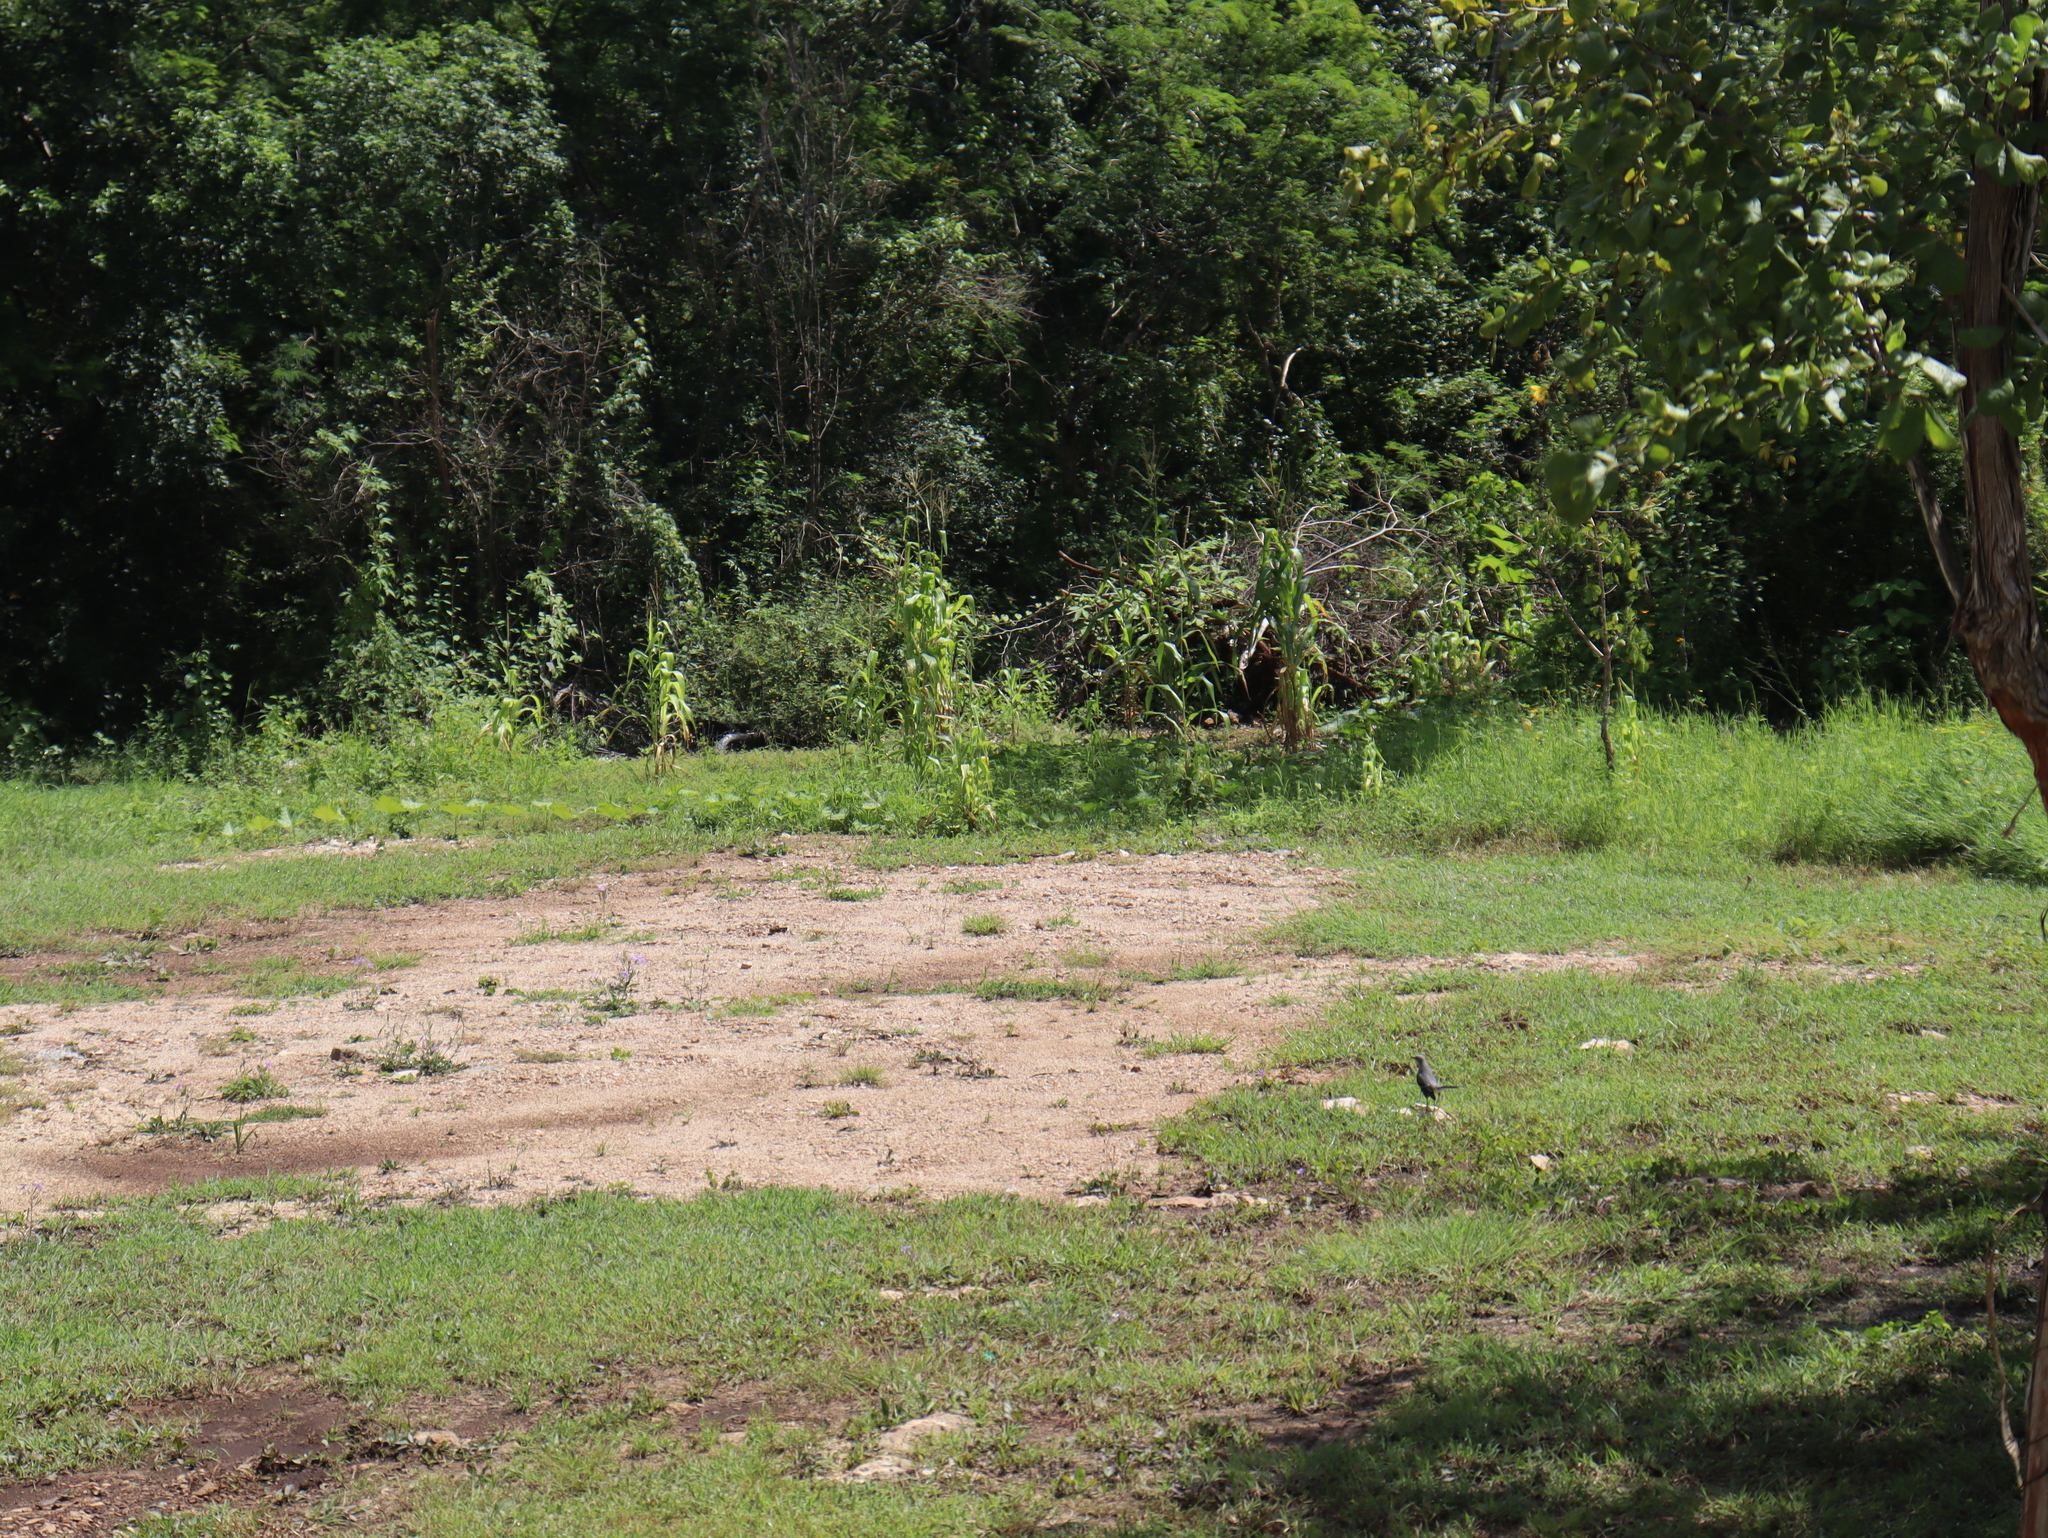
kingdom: Animalia
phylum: Chordata
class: Aves
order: Passeriformes
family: Mimidae
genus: Mimus
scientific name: Mimus gilvus
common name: Tropical mockingbird
